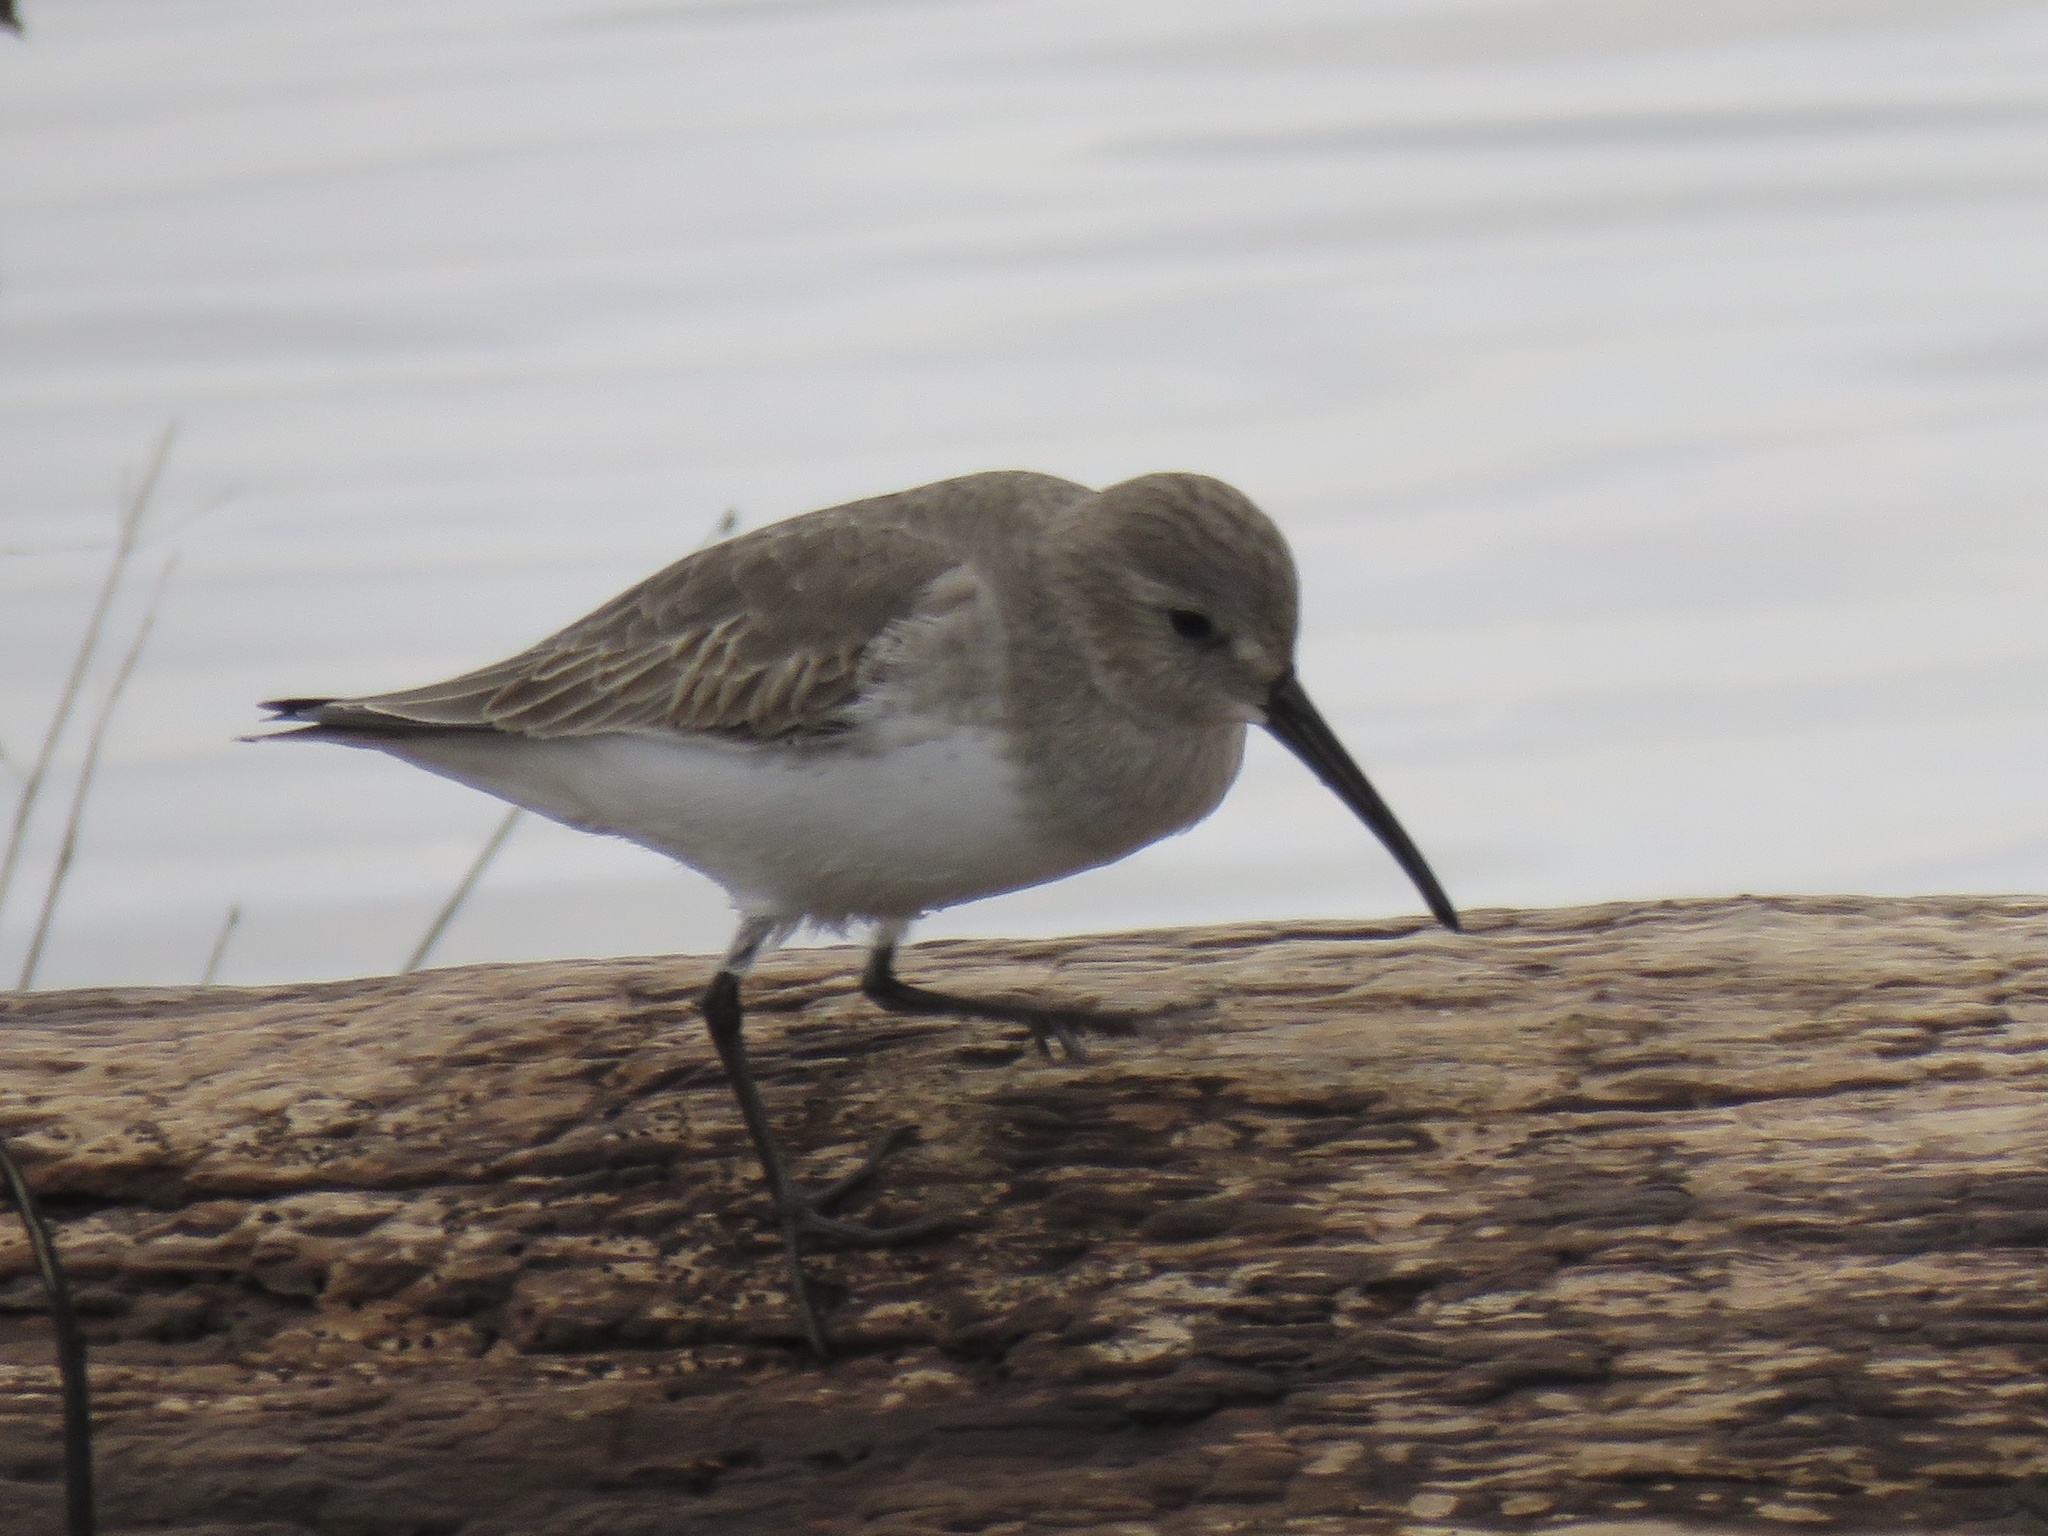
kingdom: Animalia
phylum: Chordata
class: Aves
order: Charadriiformes
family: Scolopacidae
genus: Calidris
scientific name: Calidris alpina
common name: Dunlin
